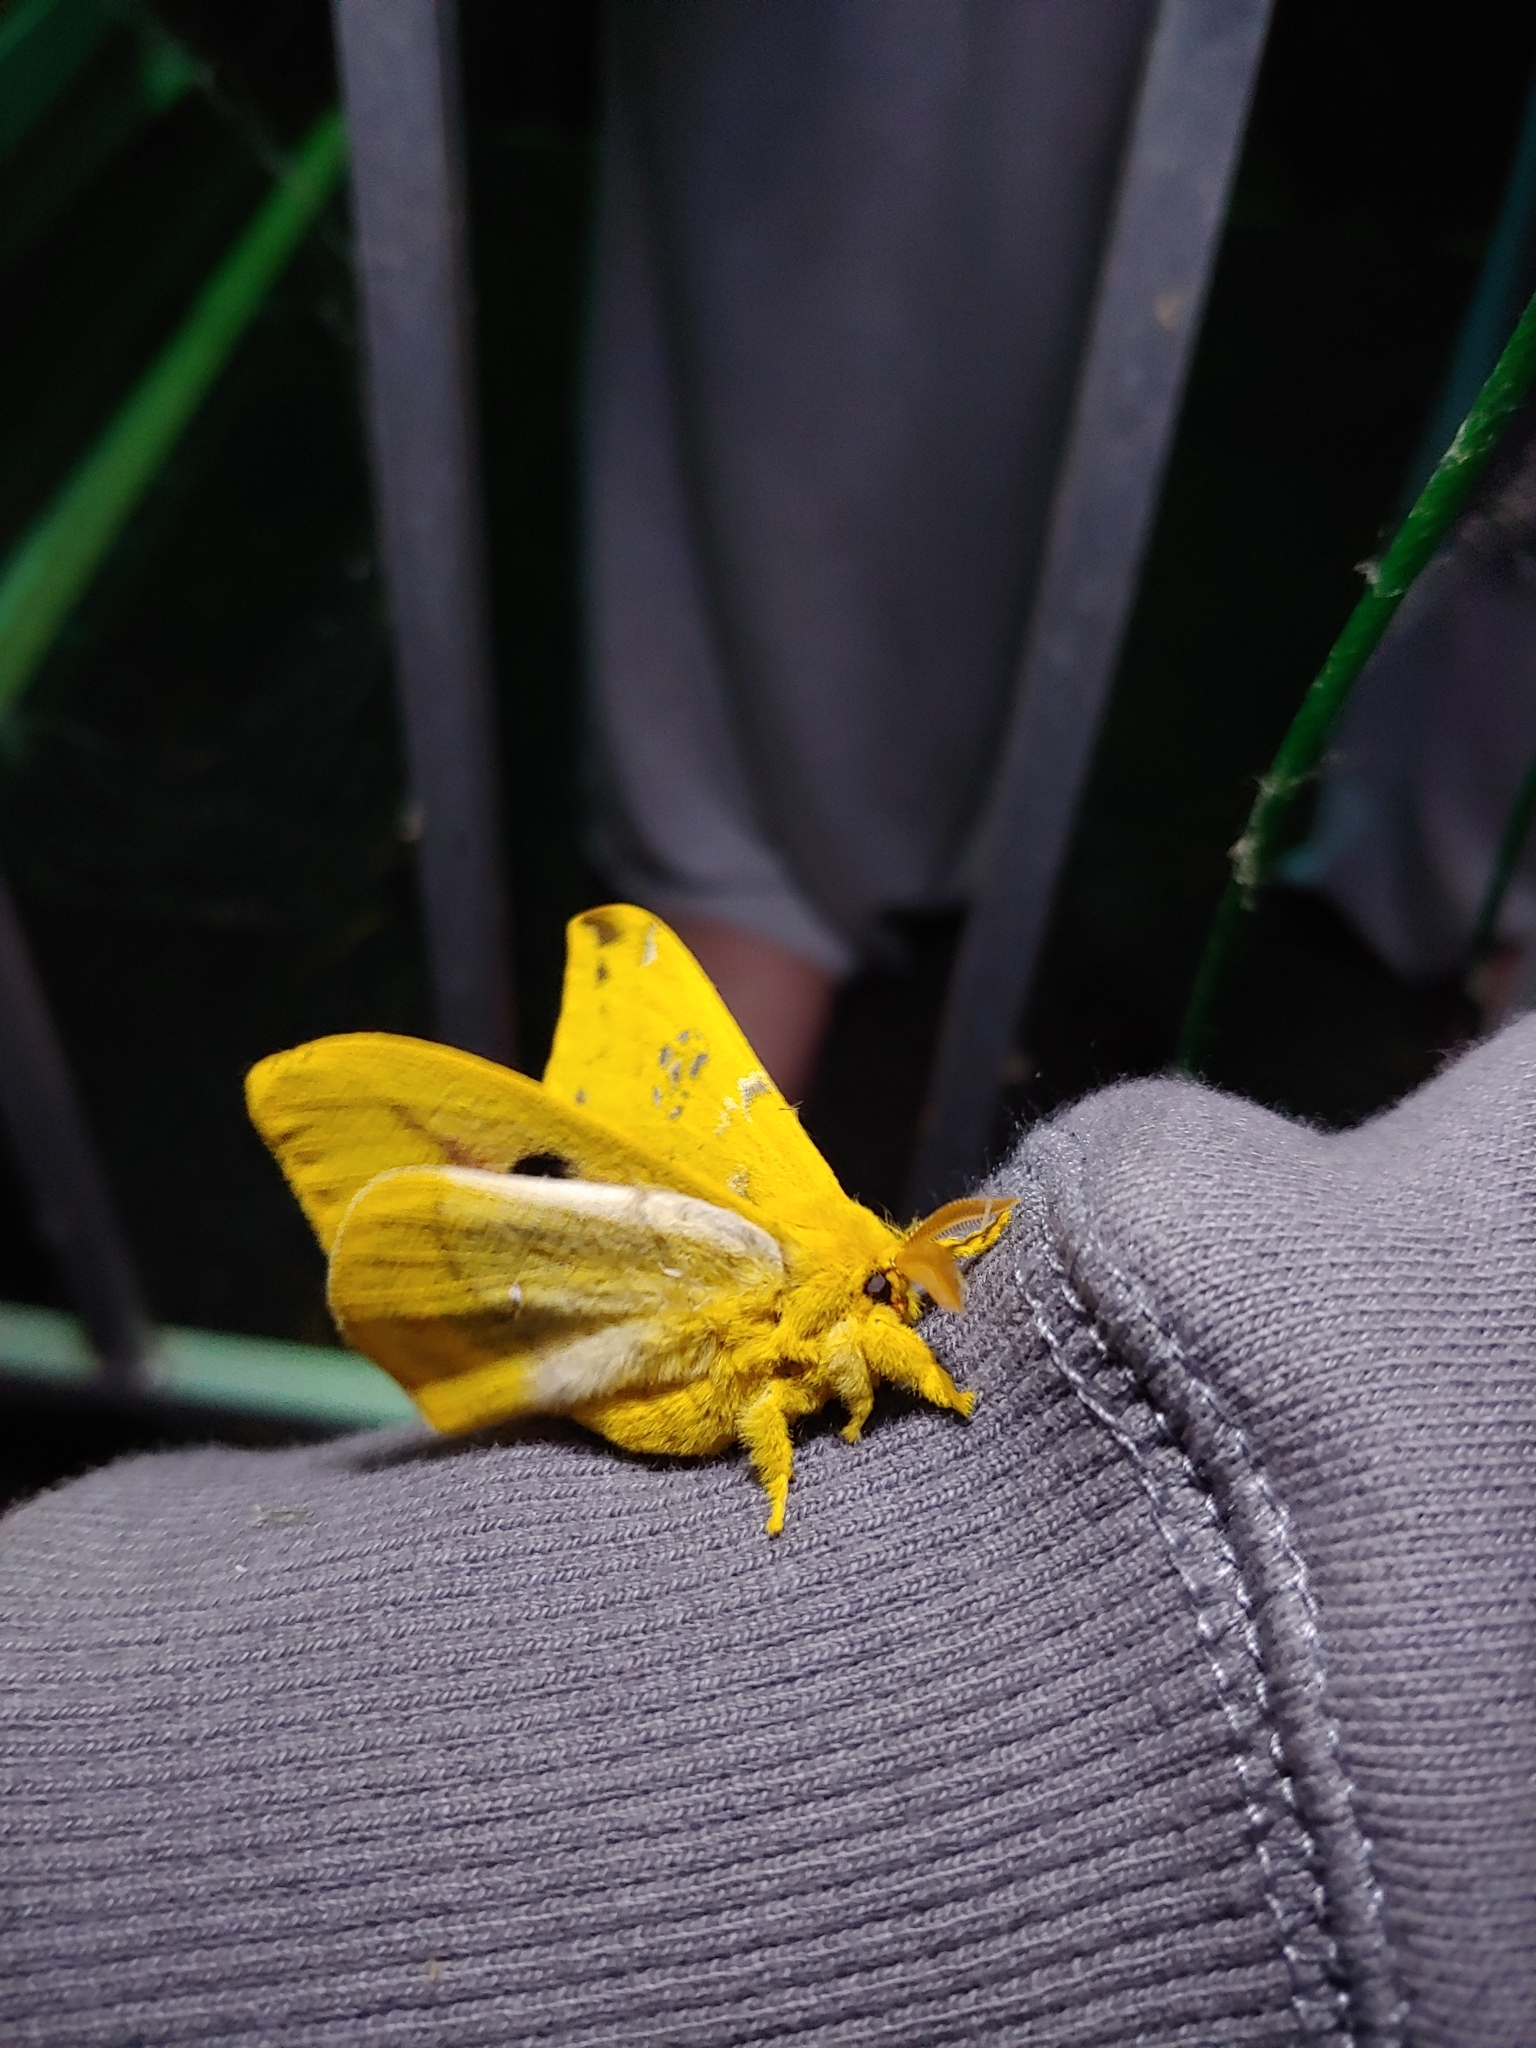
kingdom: Animalia
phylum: Arthropoda
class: Insecta
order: Lepidoptera
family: Saturniidae
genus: Automeris
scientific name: Automeris io
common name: Io moth
